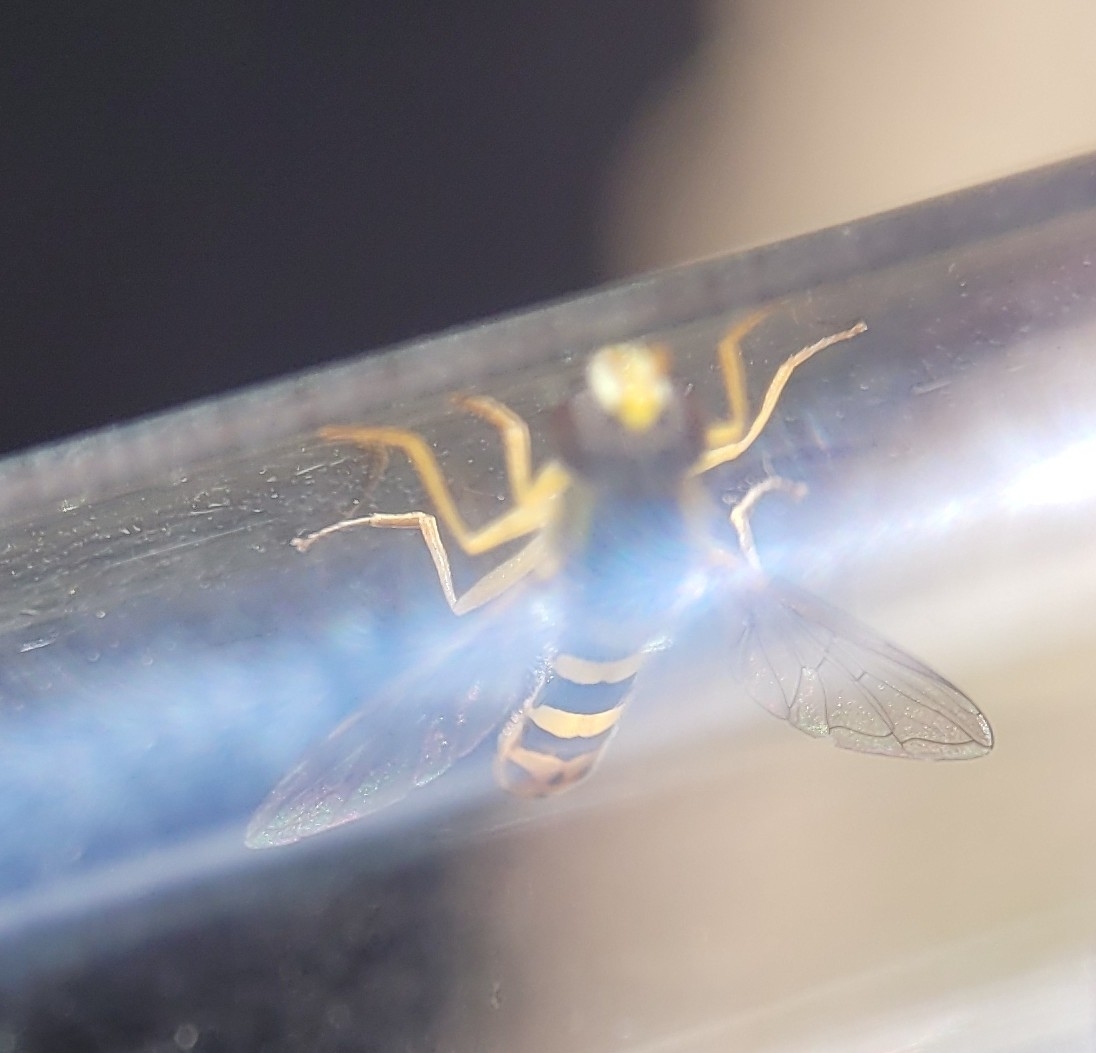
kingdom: Animalia
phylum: Arthropoda
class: Insecta
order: Diptera
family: Syrphidae
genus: Sphaerophoria
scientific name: Sphaerophoria scripta
